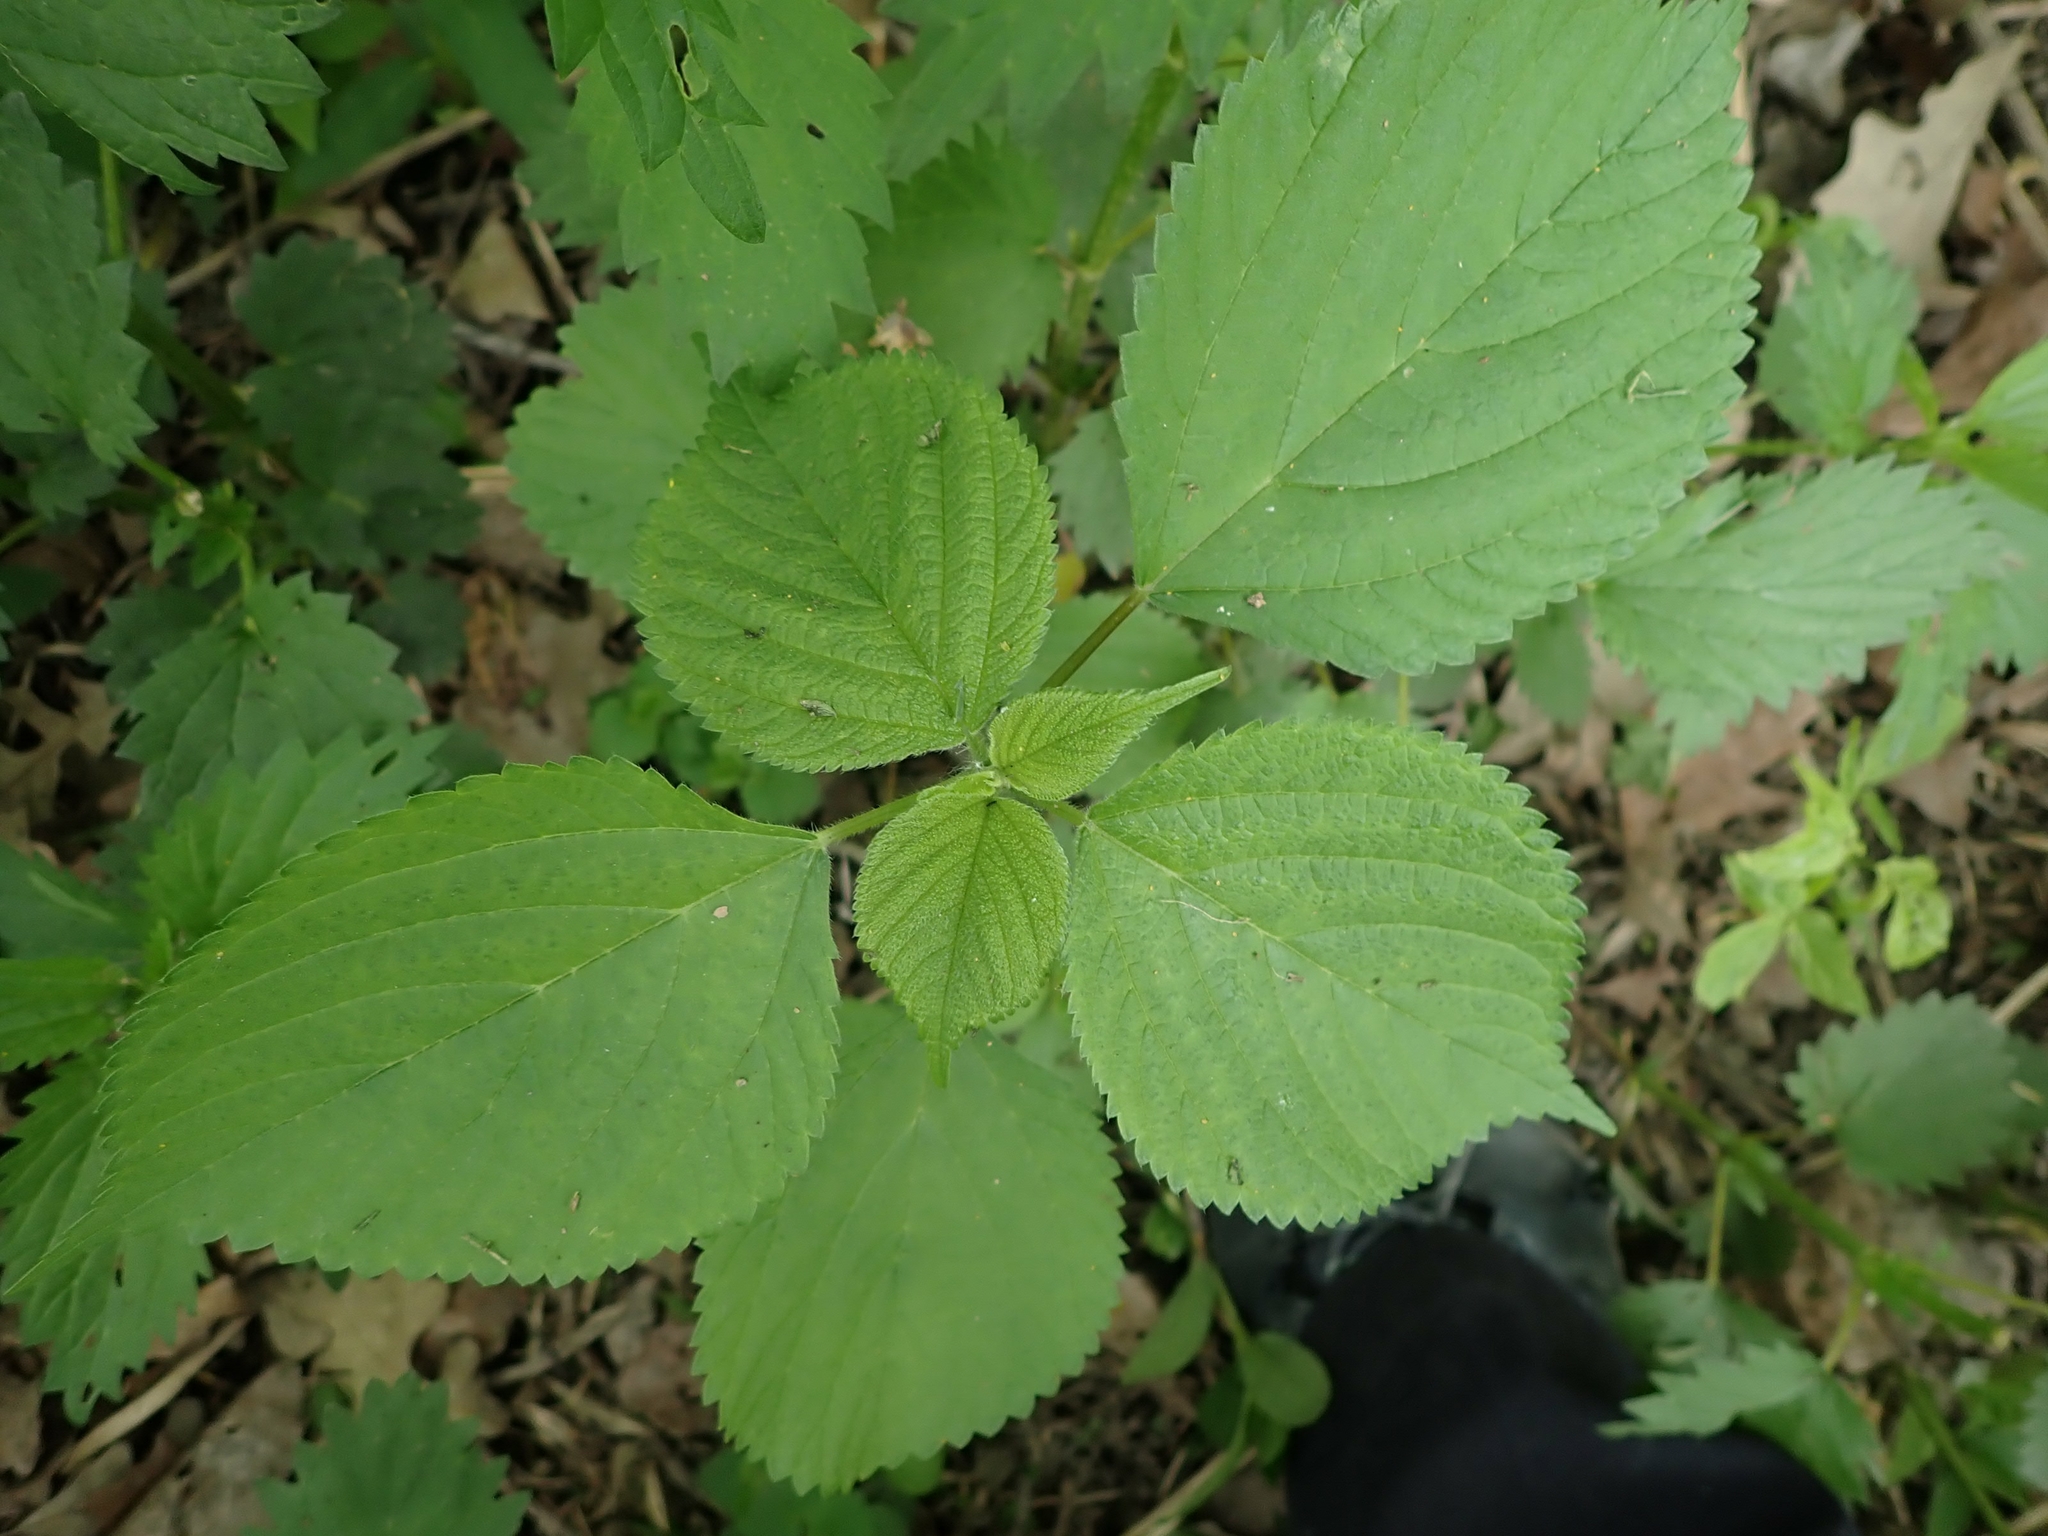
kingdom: Plantae
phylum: Tracheophyta
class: Magnoliopsida
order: Rosales
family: Urticaceae
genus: Laportea
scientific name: Laportea canadensis
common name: Canada nettle
